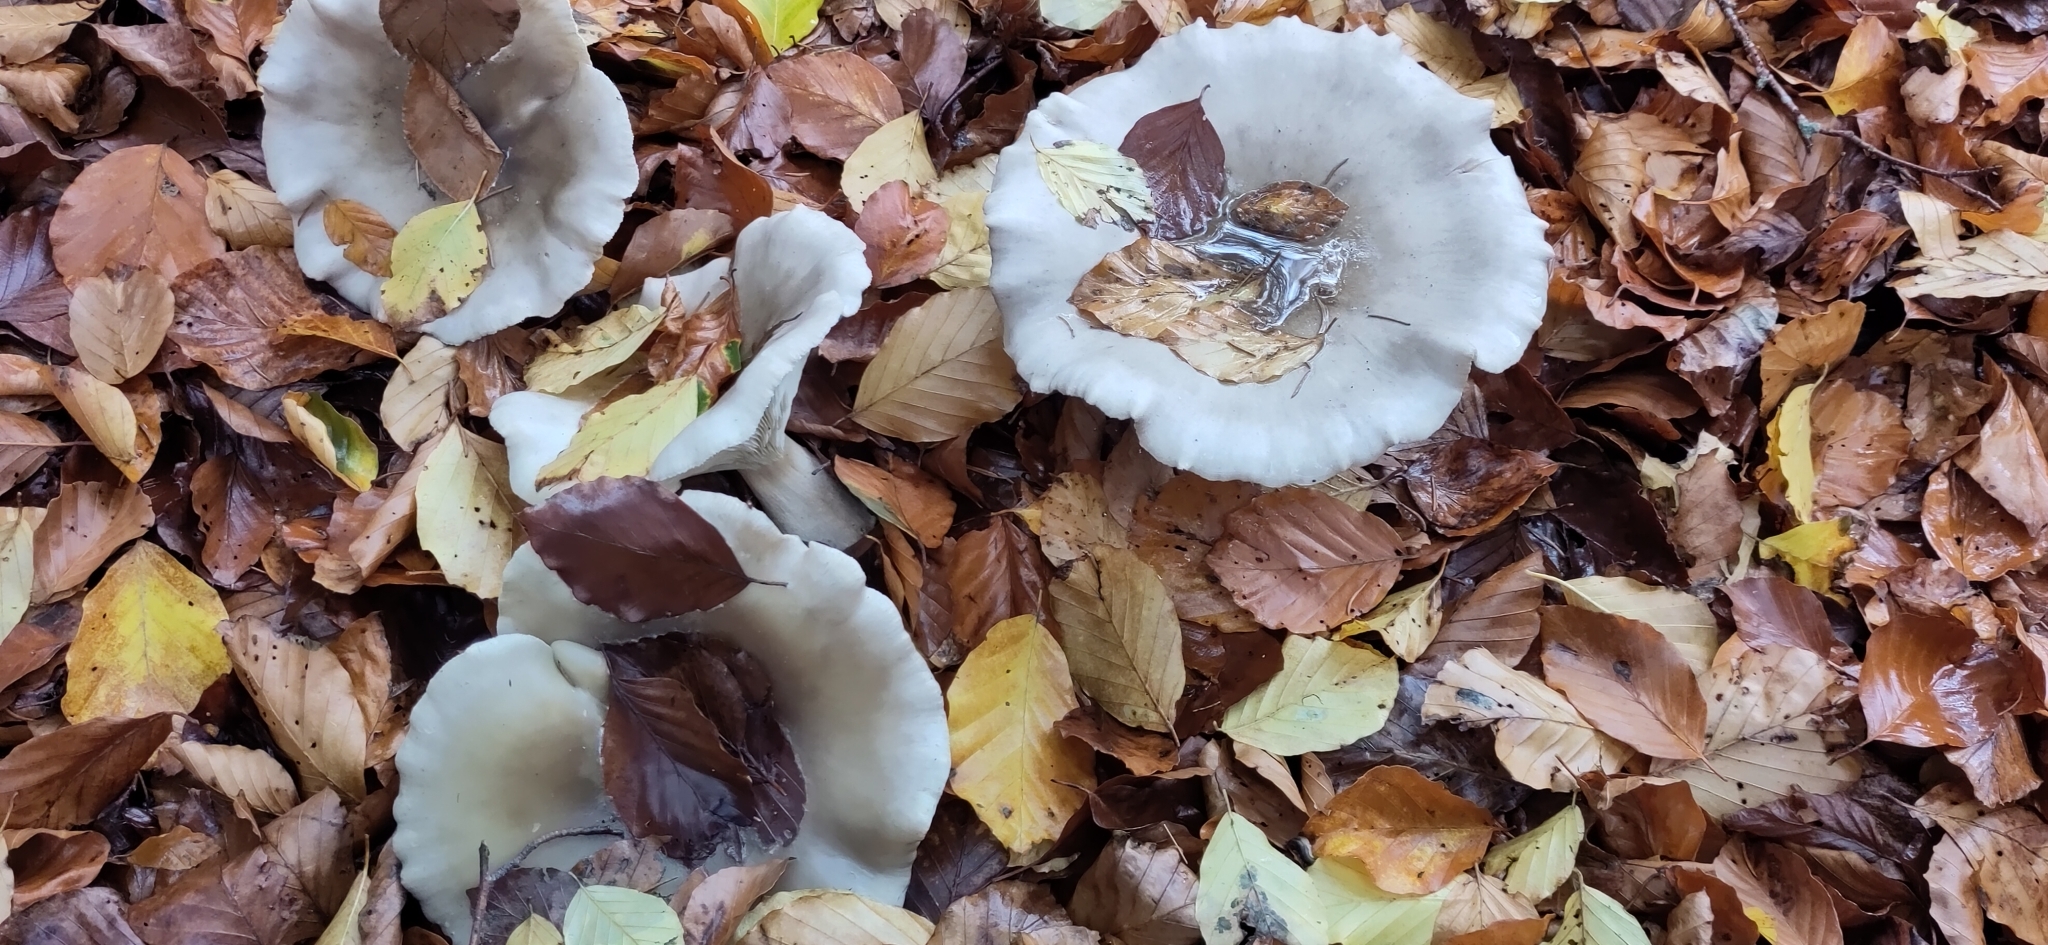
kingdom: Fungi
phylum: Basidiomycota
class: Agaricomycetes
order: Agaricales
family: Tricholomataceae
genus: Clitocybe
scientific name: Clitocybe nebularis
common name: Clouded agaric
